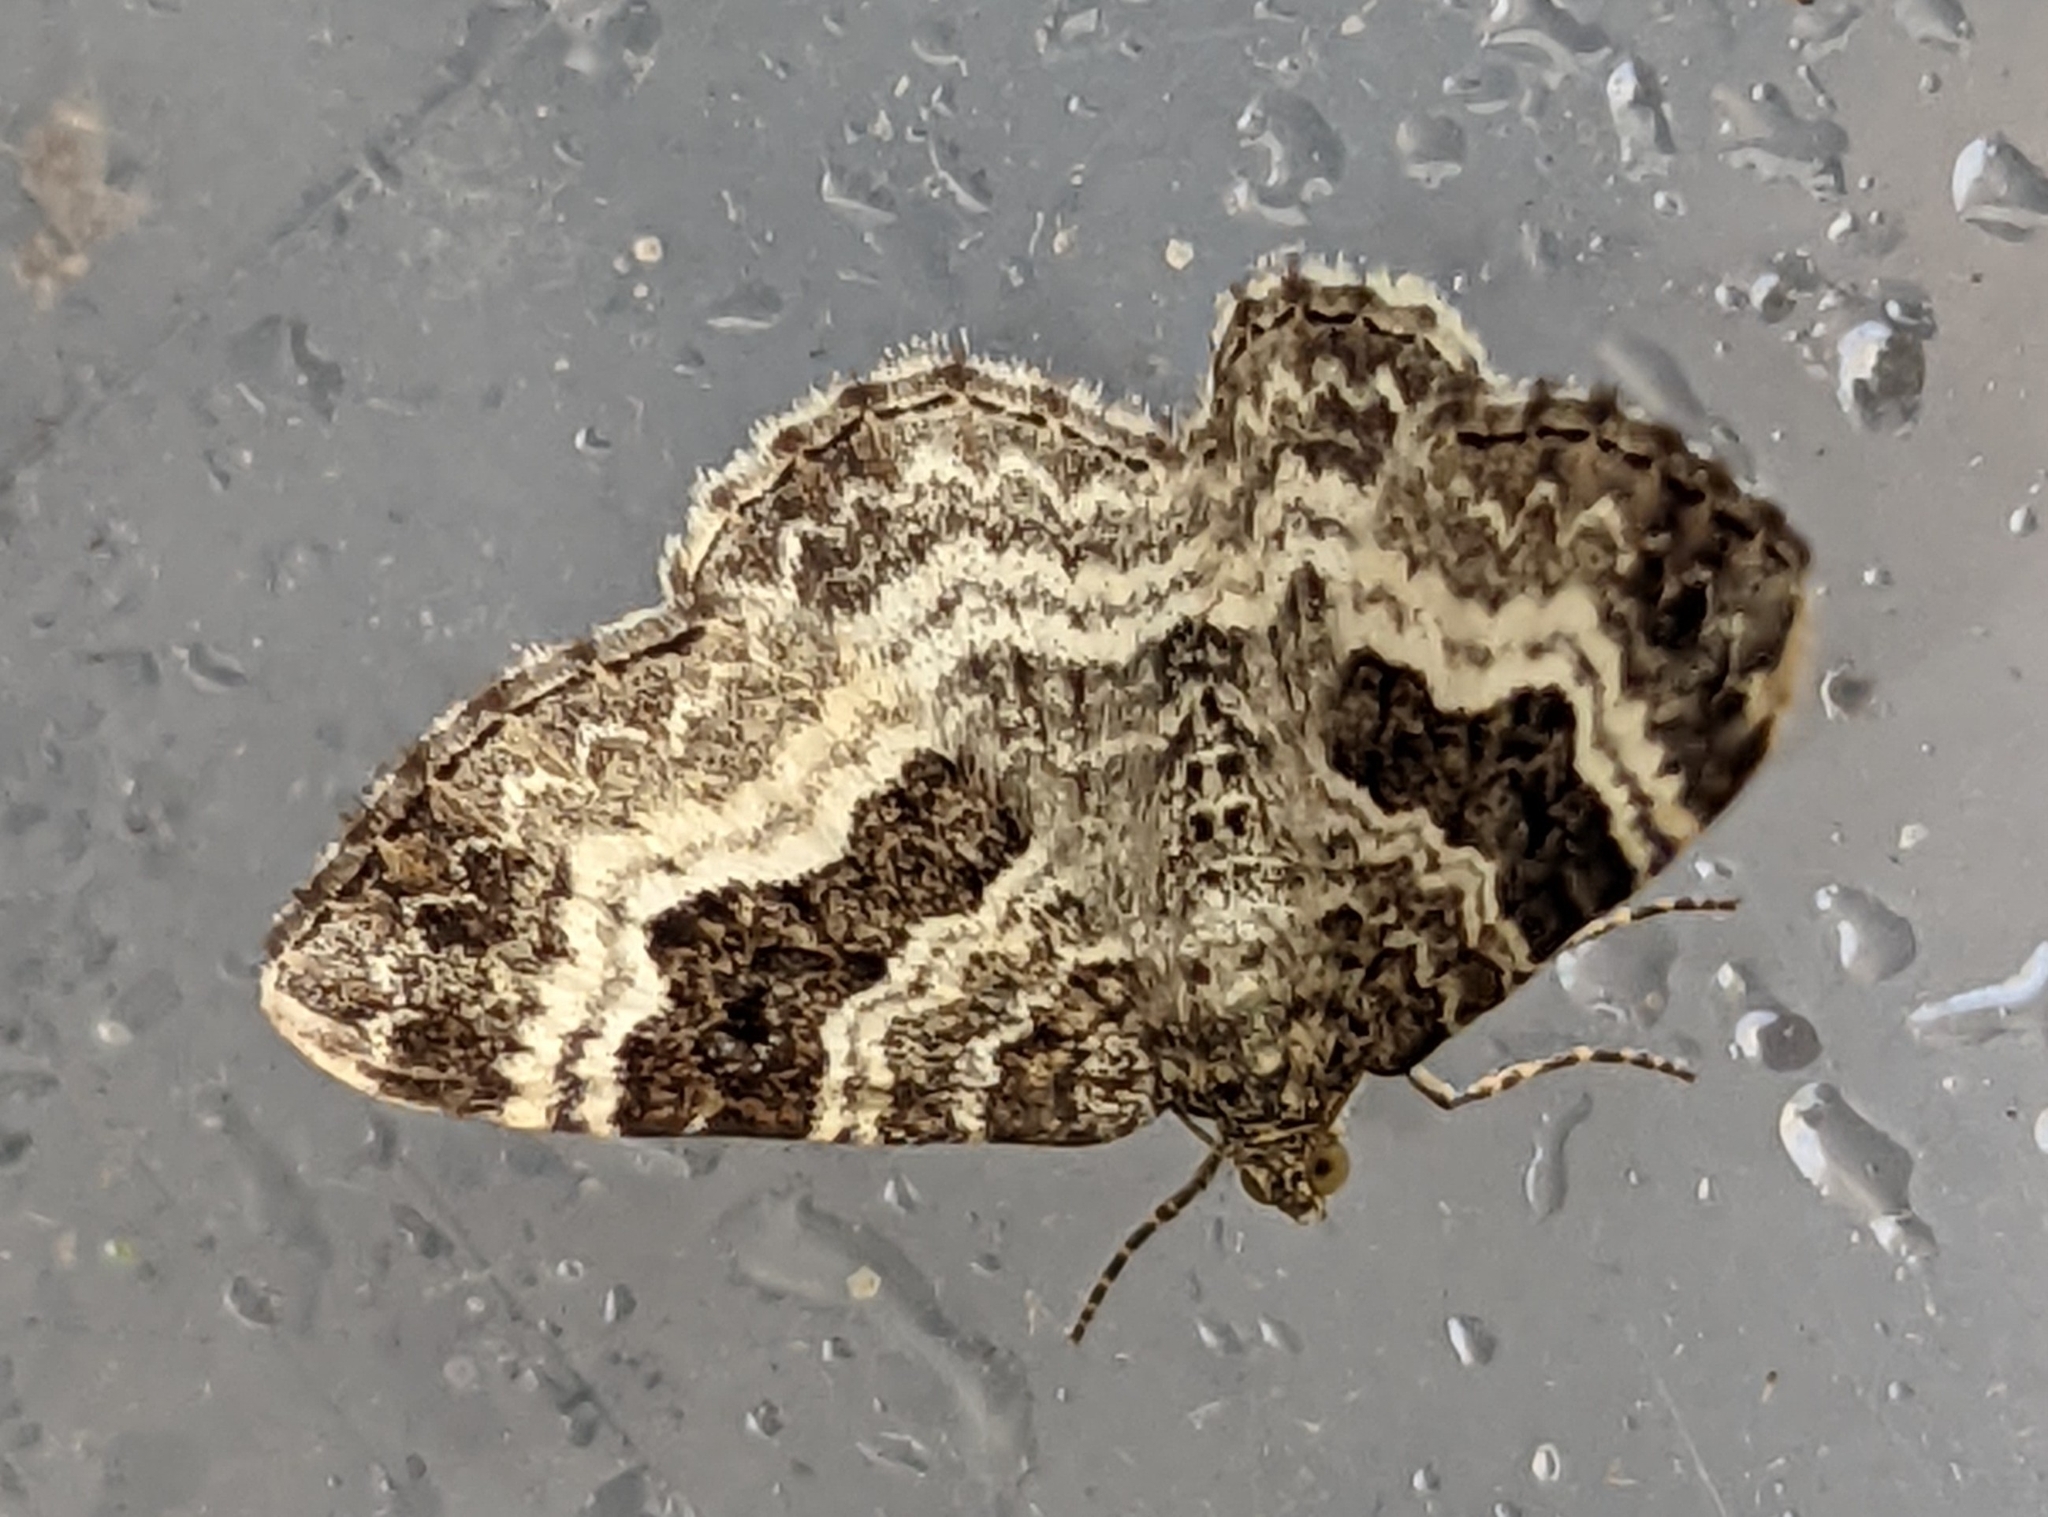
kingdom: Animalia
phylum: Arthropoda
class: Insecta
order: Lepidoptera
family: Geometridae
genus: Epirrhoe
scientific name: Epirrhoe alternata
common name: Common carpet
